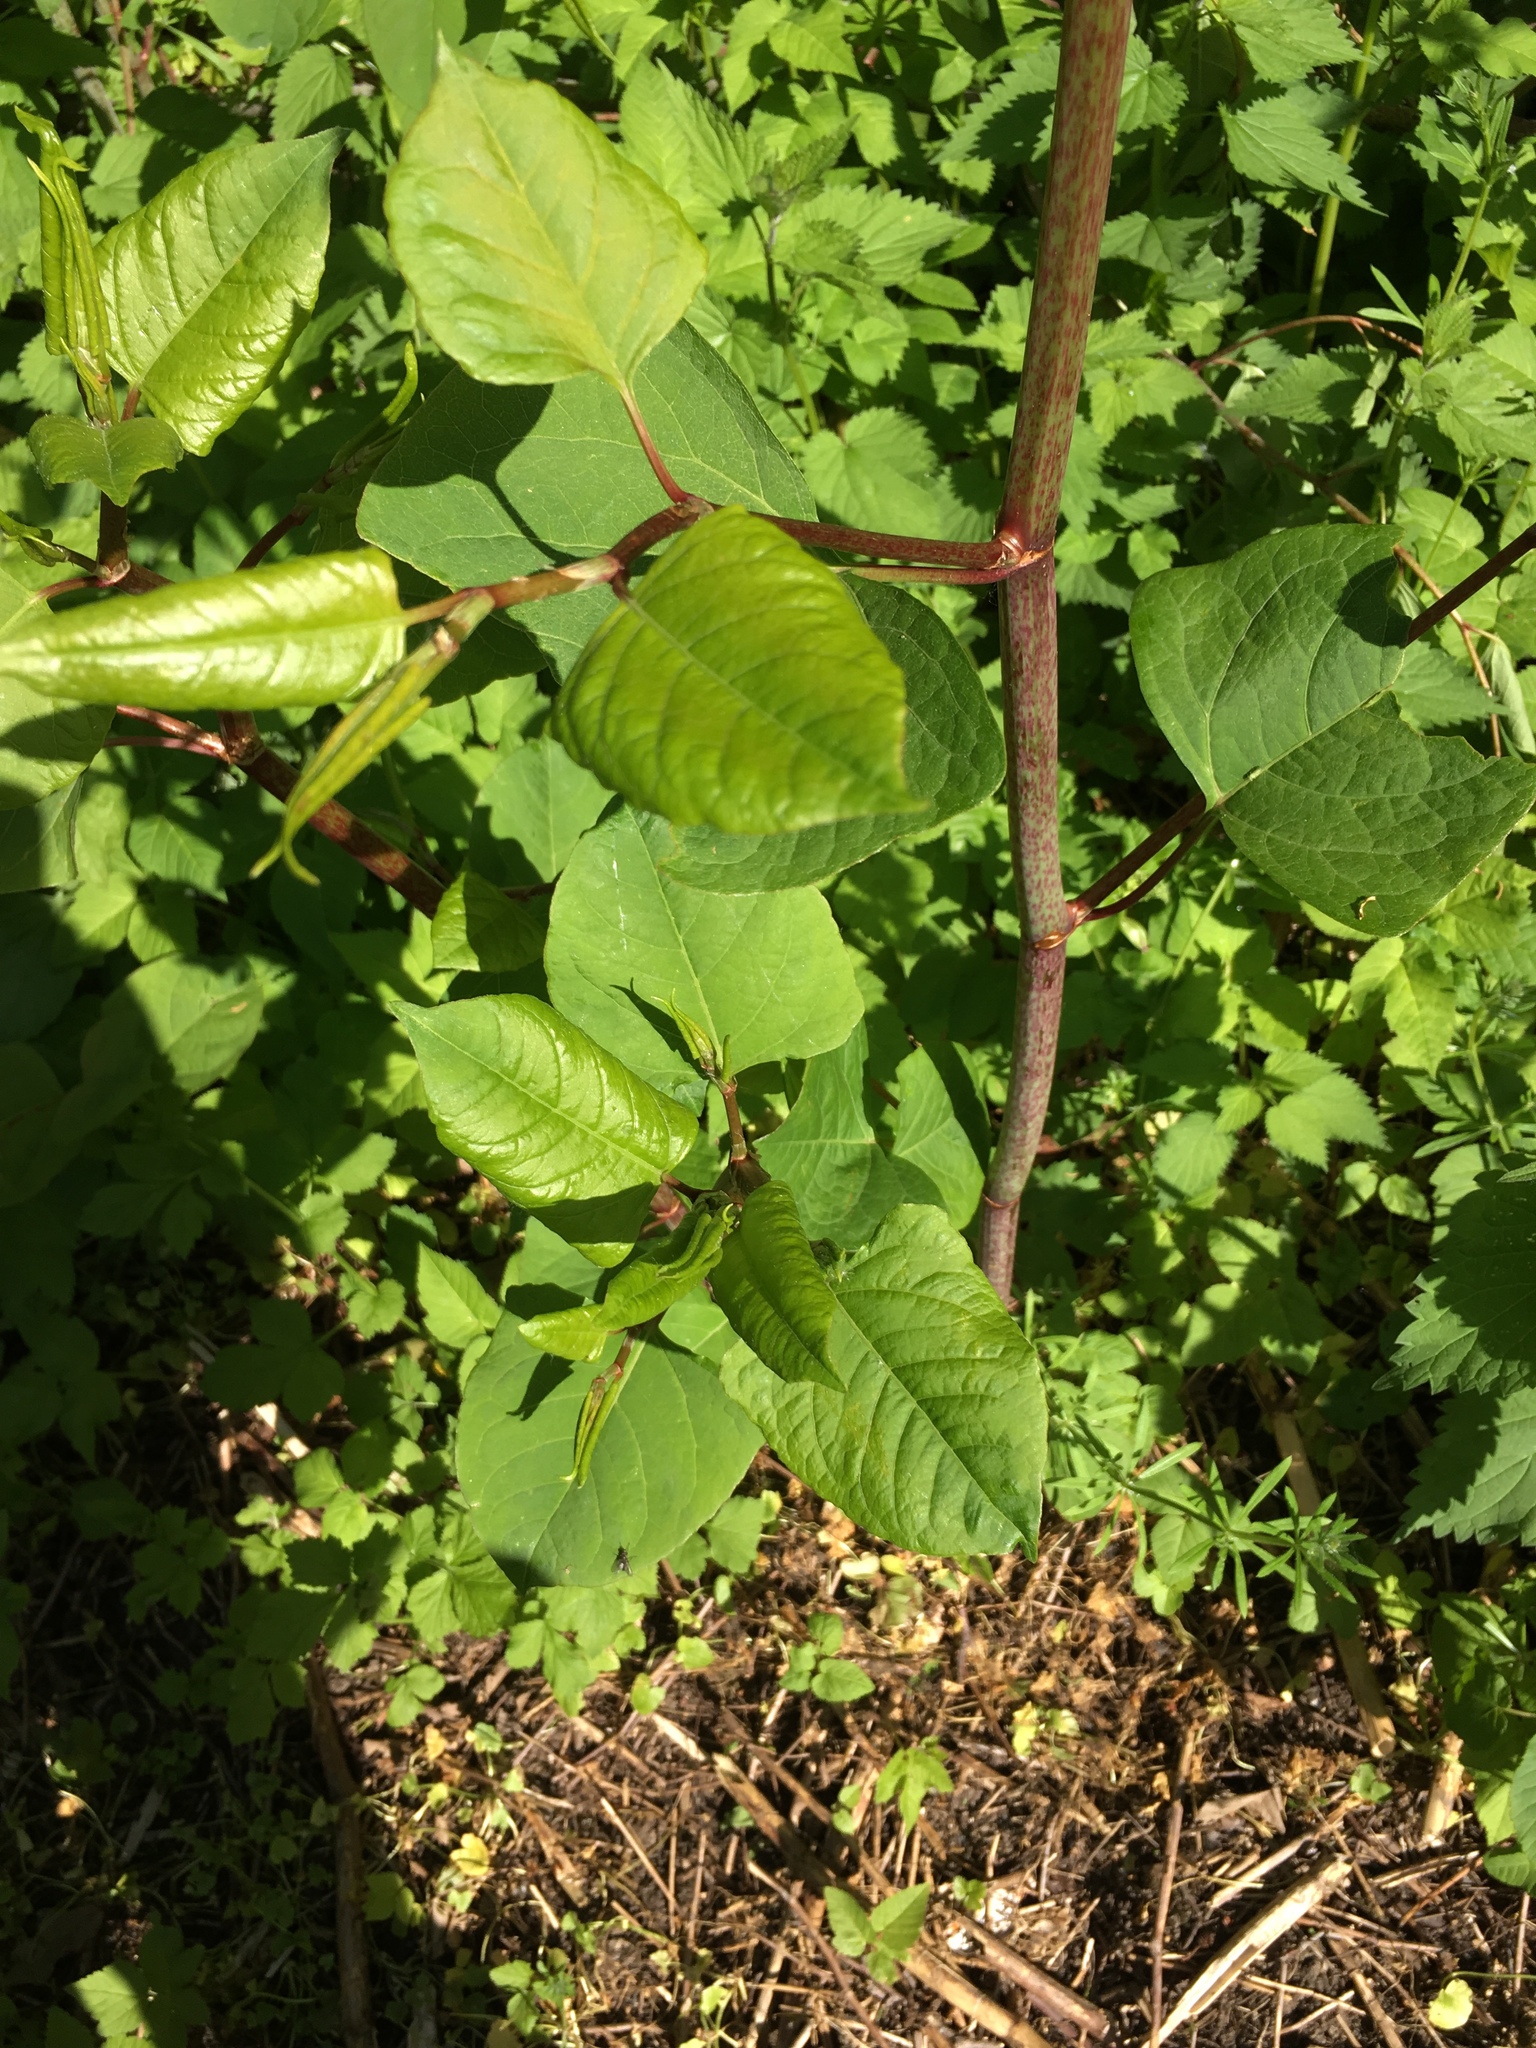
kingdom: Plantae
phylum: Tracheophyta
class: Magnoliopsida
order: Caryophyllales
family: Polygonaceae
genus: Reynoutria
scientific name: Reynoutria japonica
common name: Japanese knotweed
